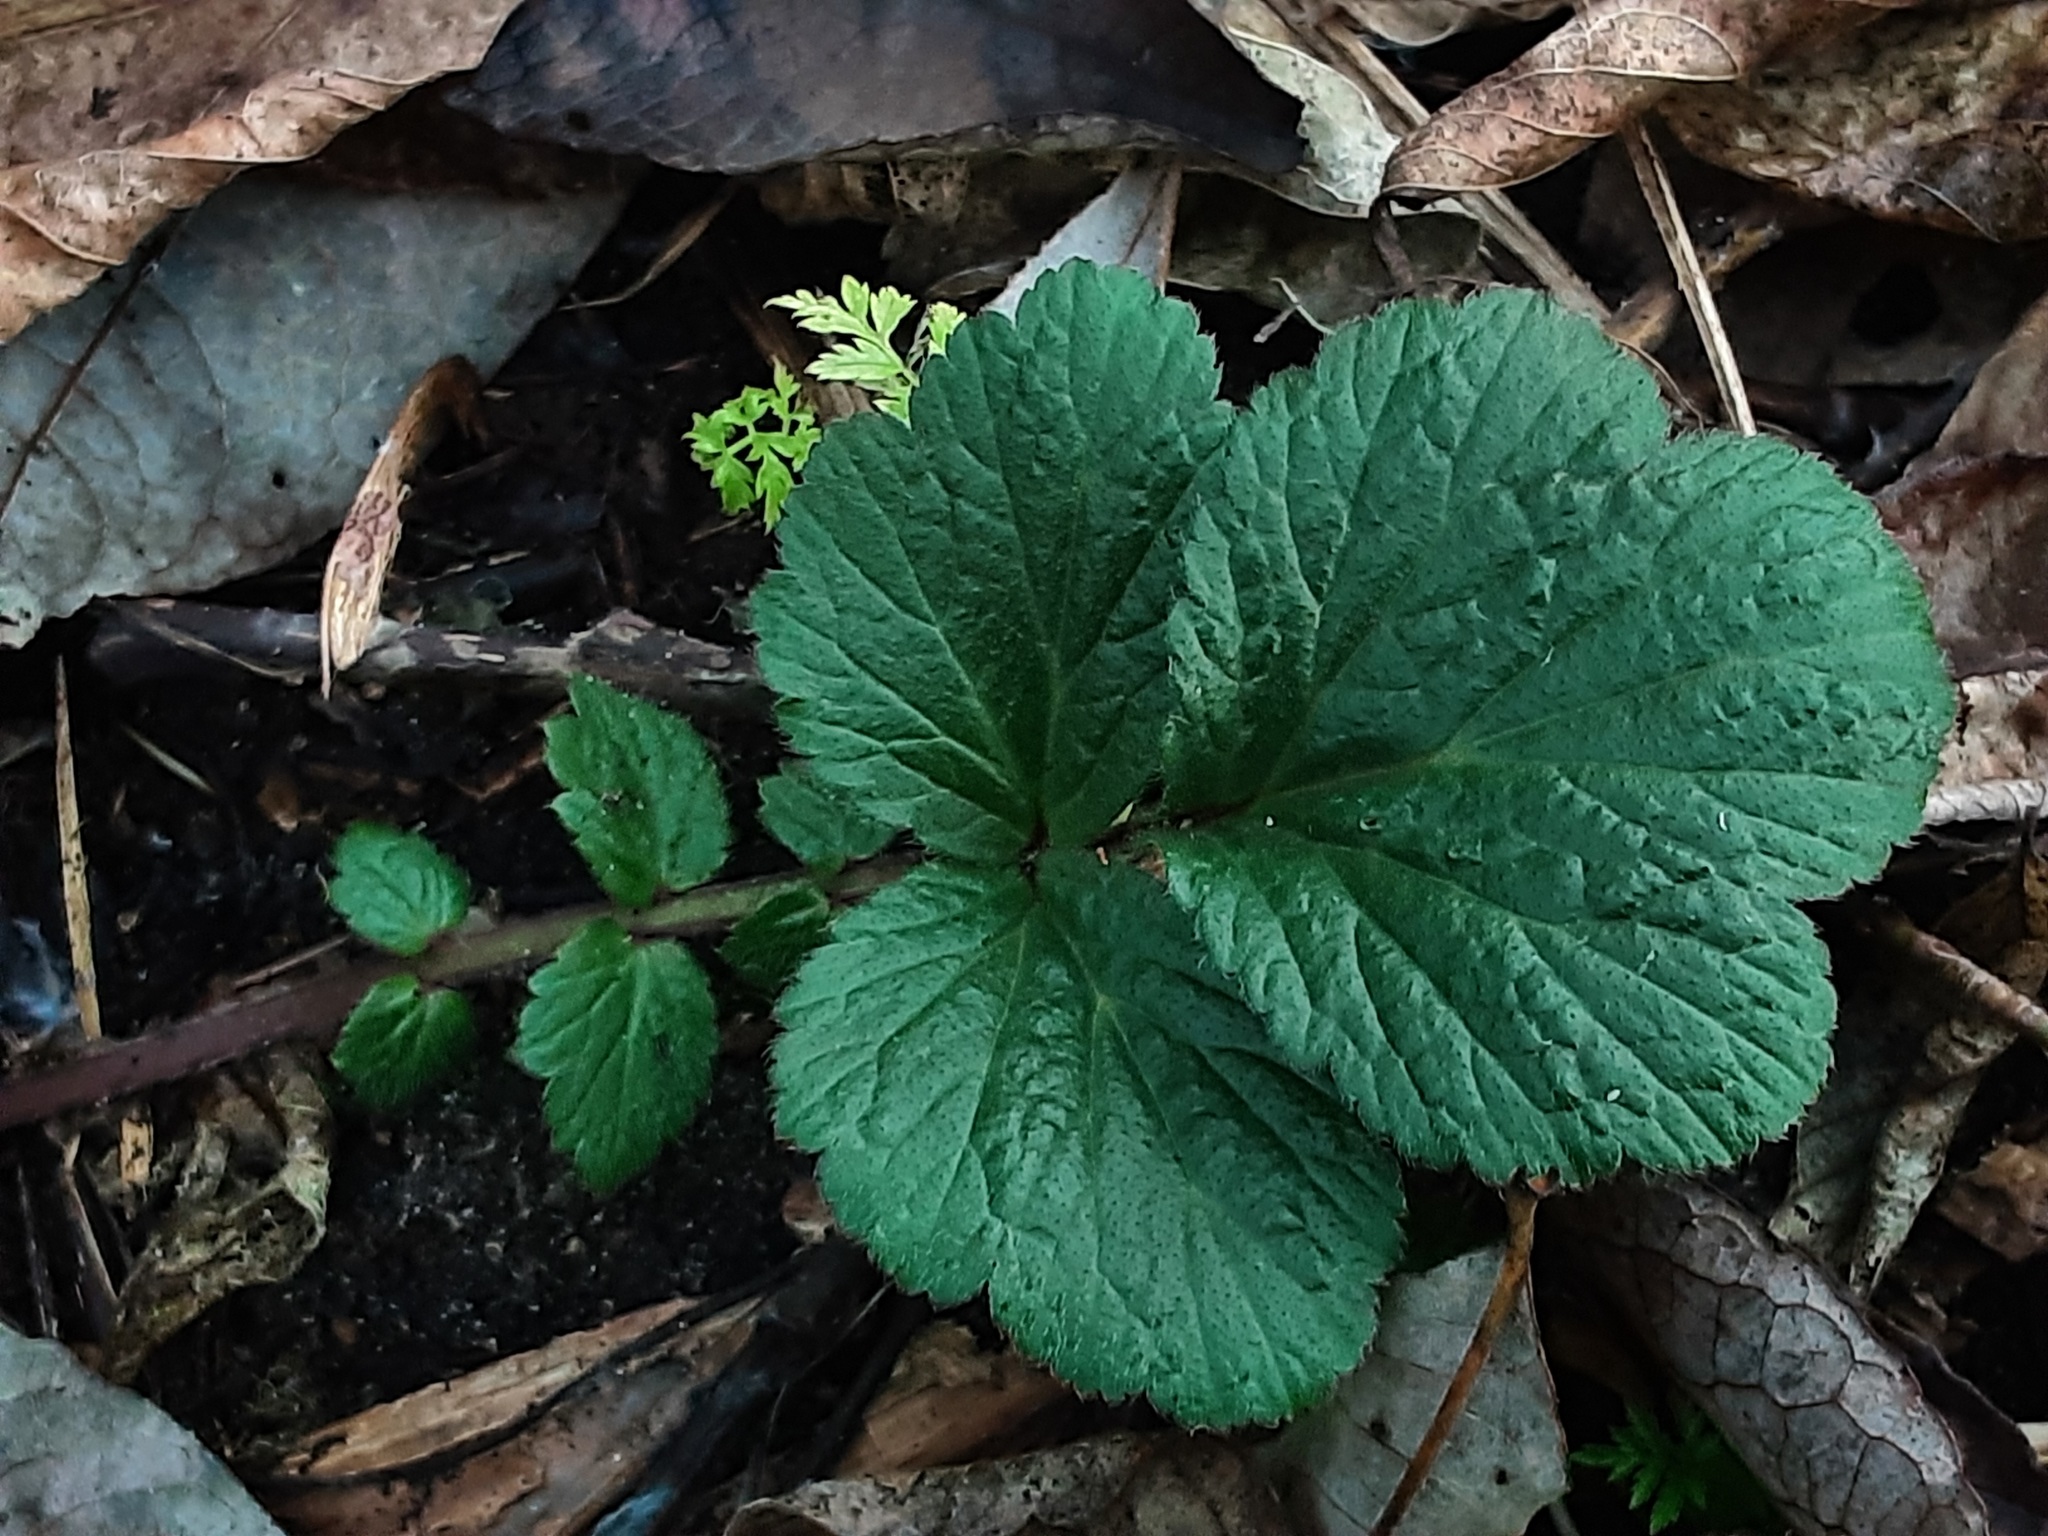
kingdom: Plantae
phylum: Tracheophyta
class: Magnoliopsida
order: Rosales
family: Rosaceae
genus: Geum
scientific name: Geum
